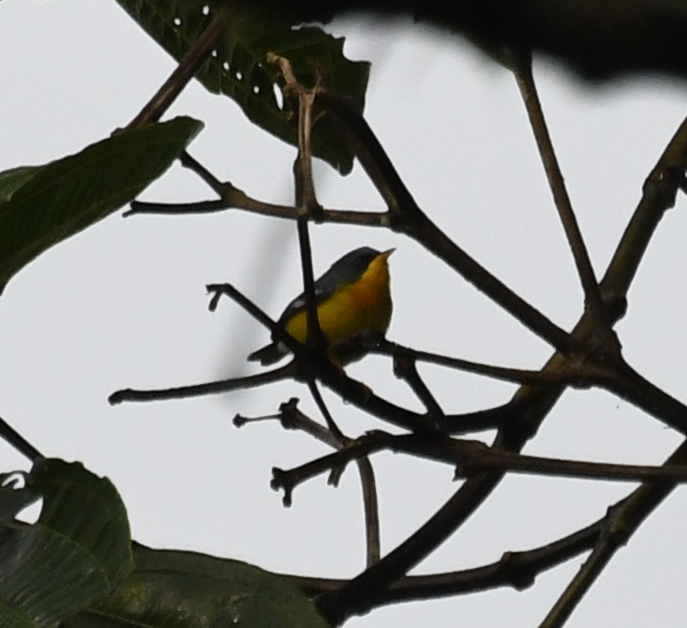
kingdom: Animalia
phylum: Chordata
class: Aves
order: Passeriformes
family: Parulidae
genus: Setophaga
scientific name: Setophaga pitiayumi
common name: Tropical parula
